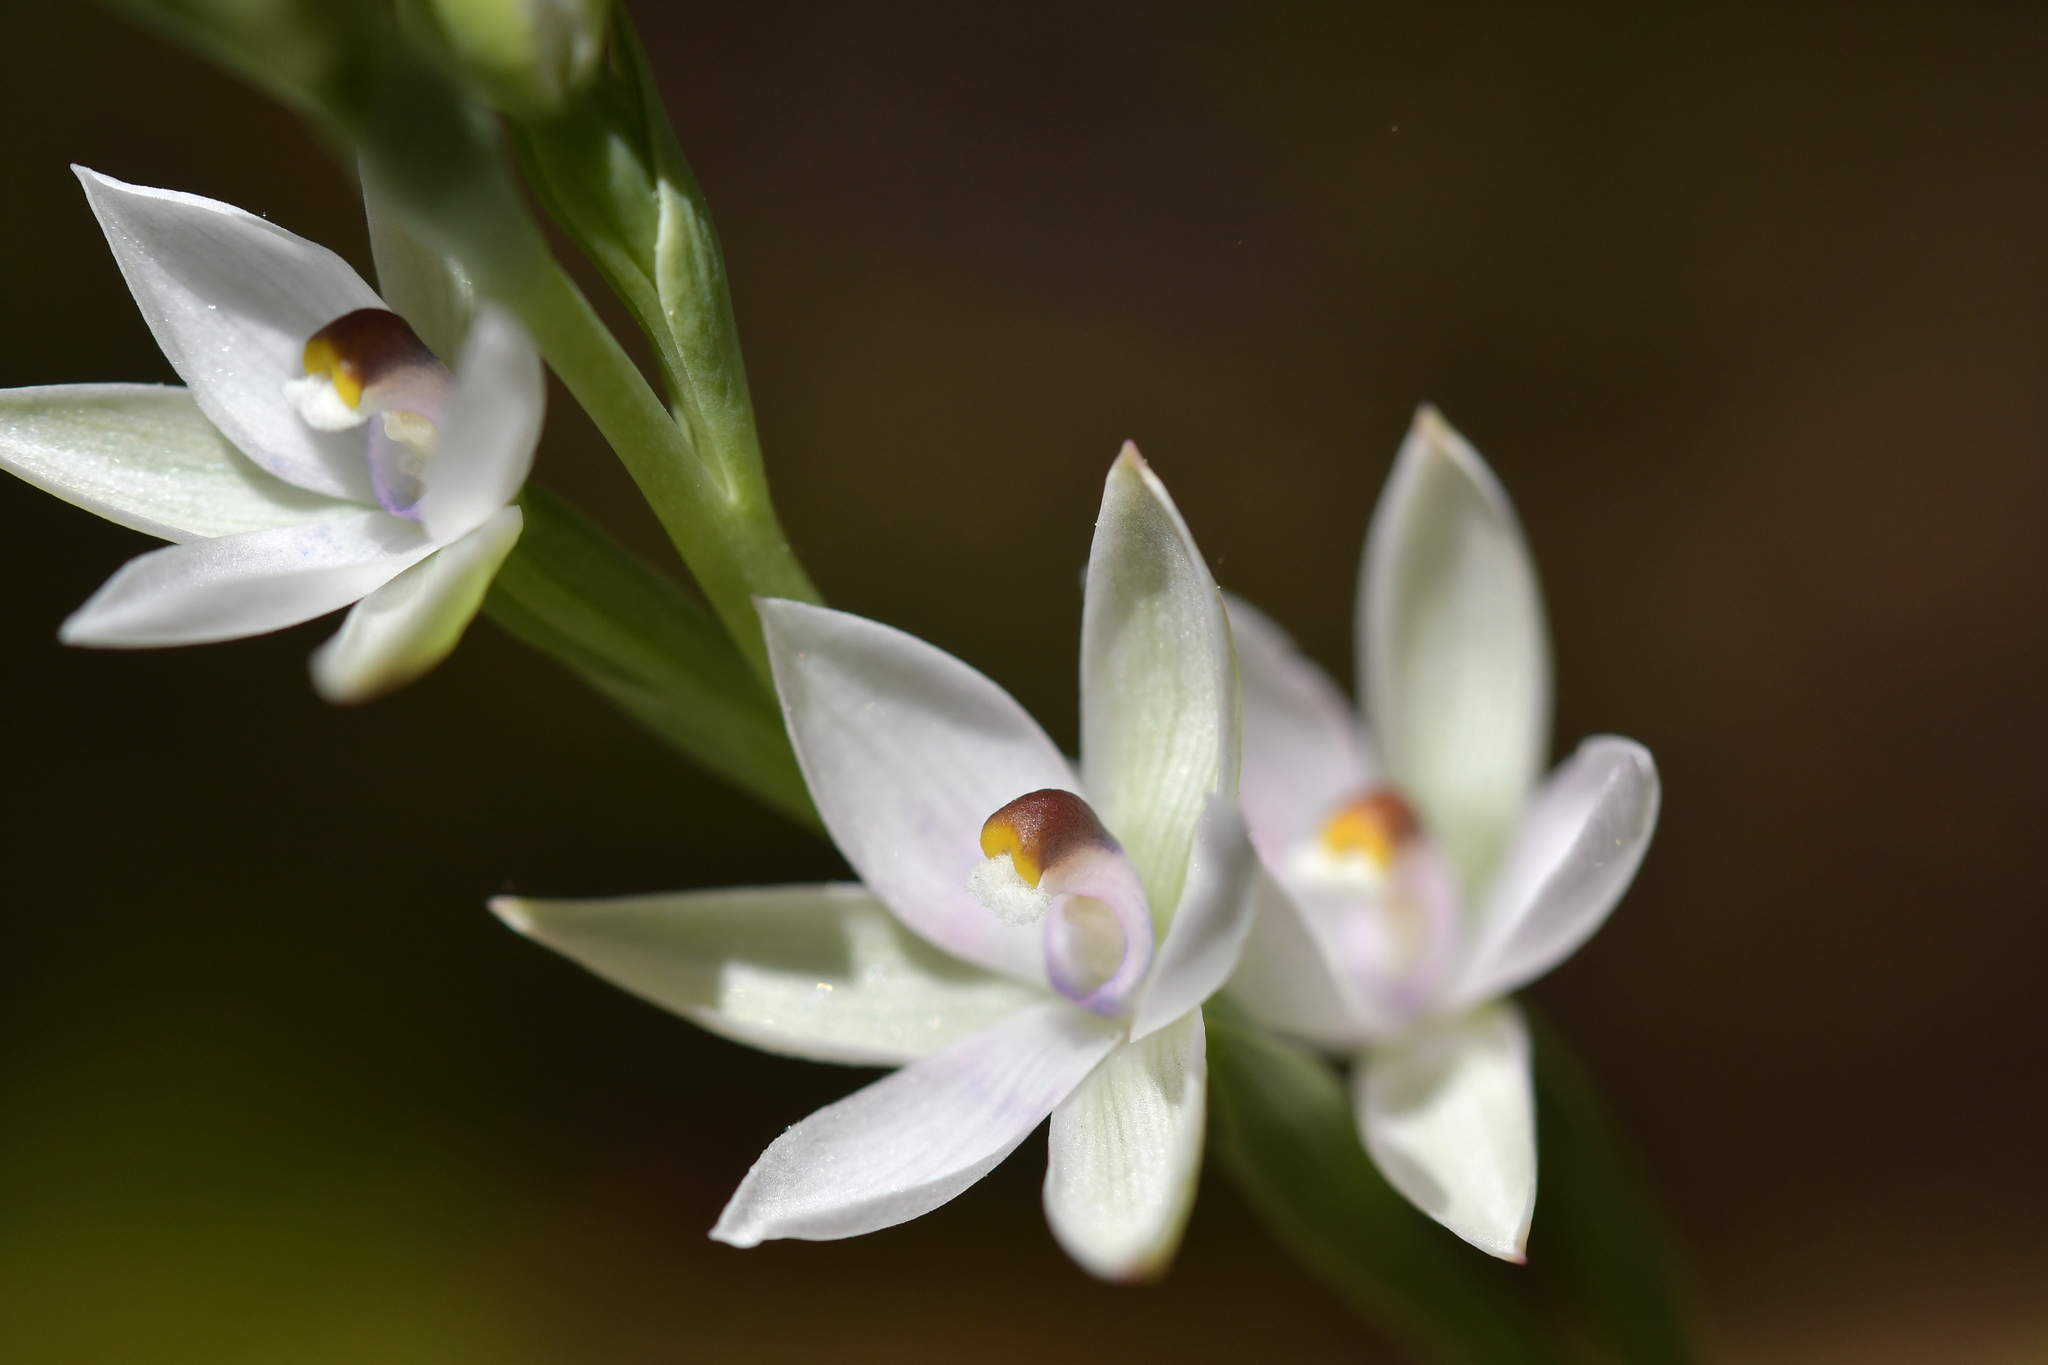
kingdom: Plantae
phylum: Tracheophyta
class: Liliopsida
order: Asparagales
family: Orchidaceae
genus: Thelymitra
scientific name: Thelymitra longifolia
